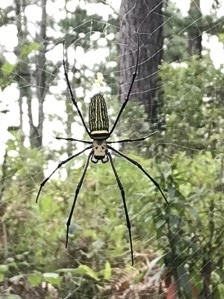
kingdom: Animalia
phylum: Arthropoda
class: Arachnida
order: Araneae
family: Araneidae
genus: Nephila
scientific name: Nephila pilipes
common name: Giant golden orb weaver
